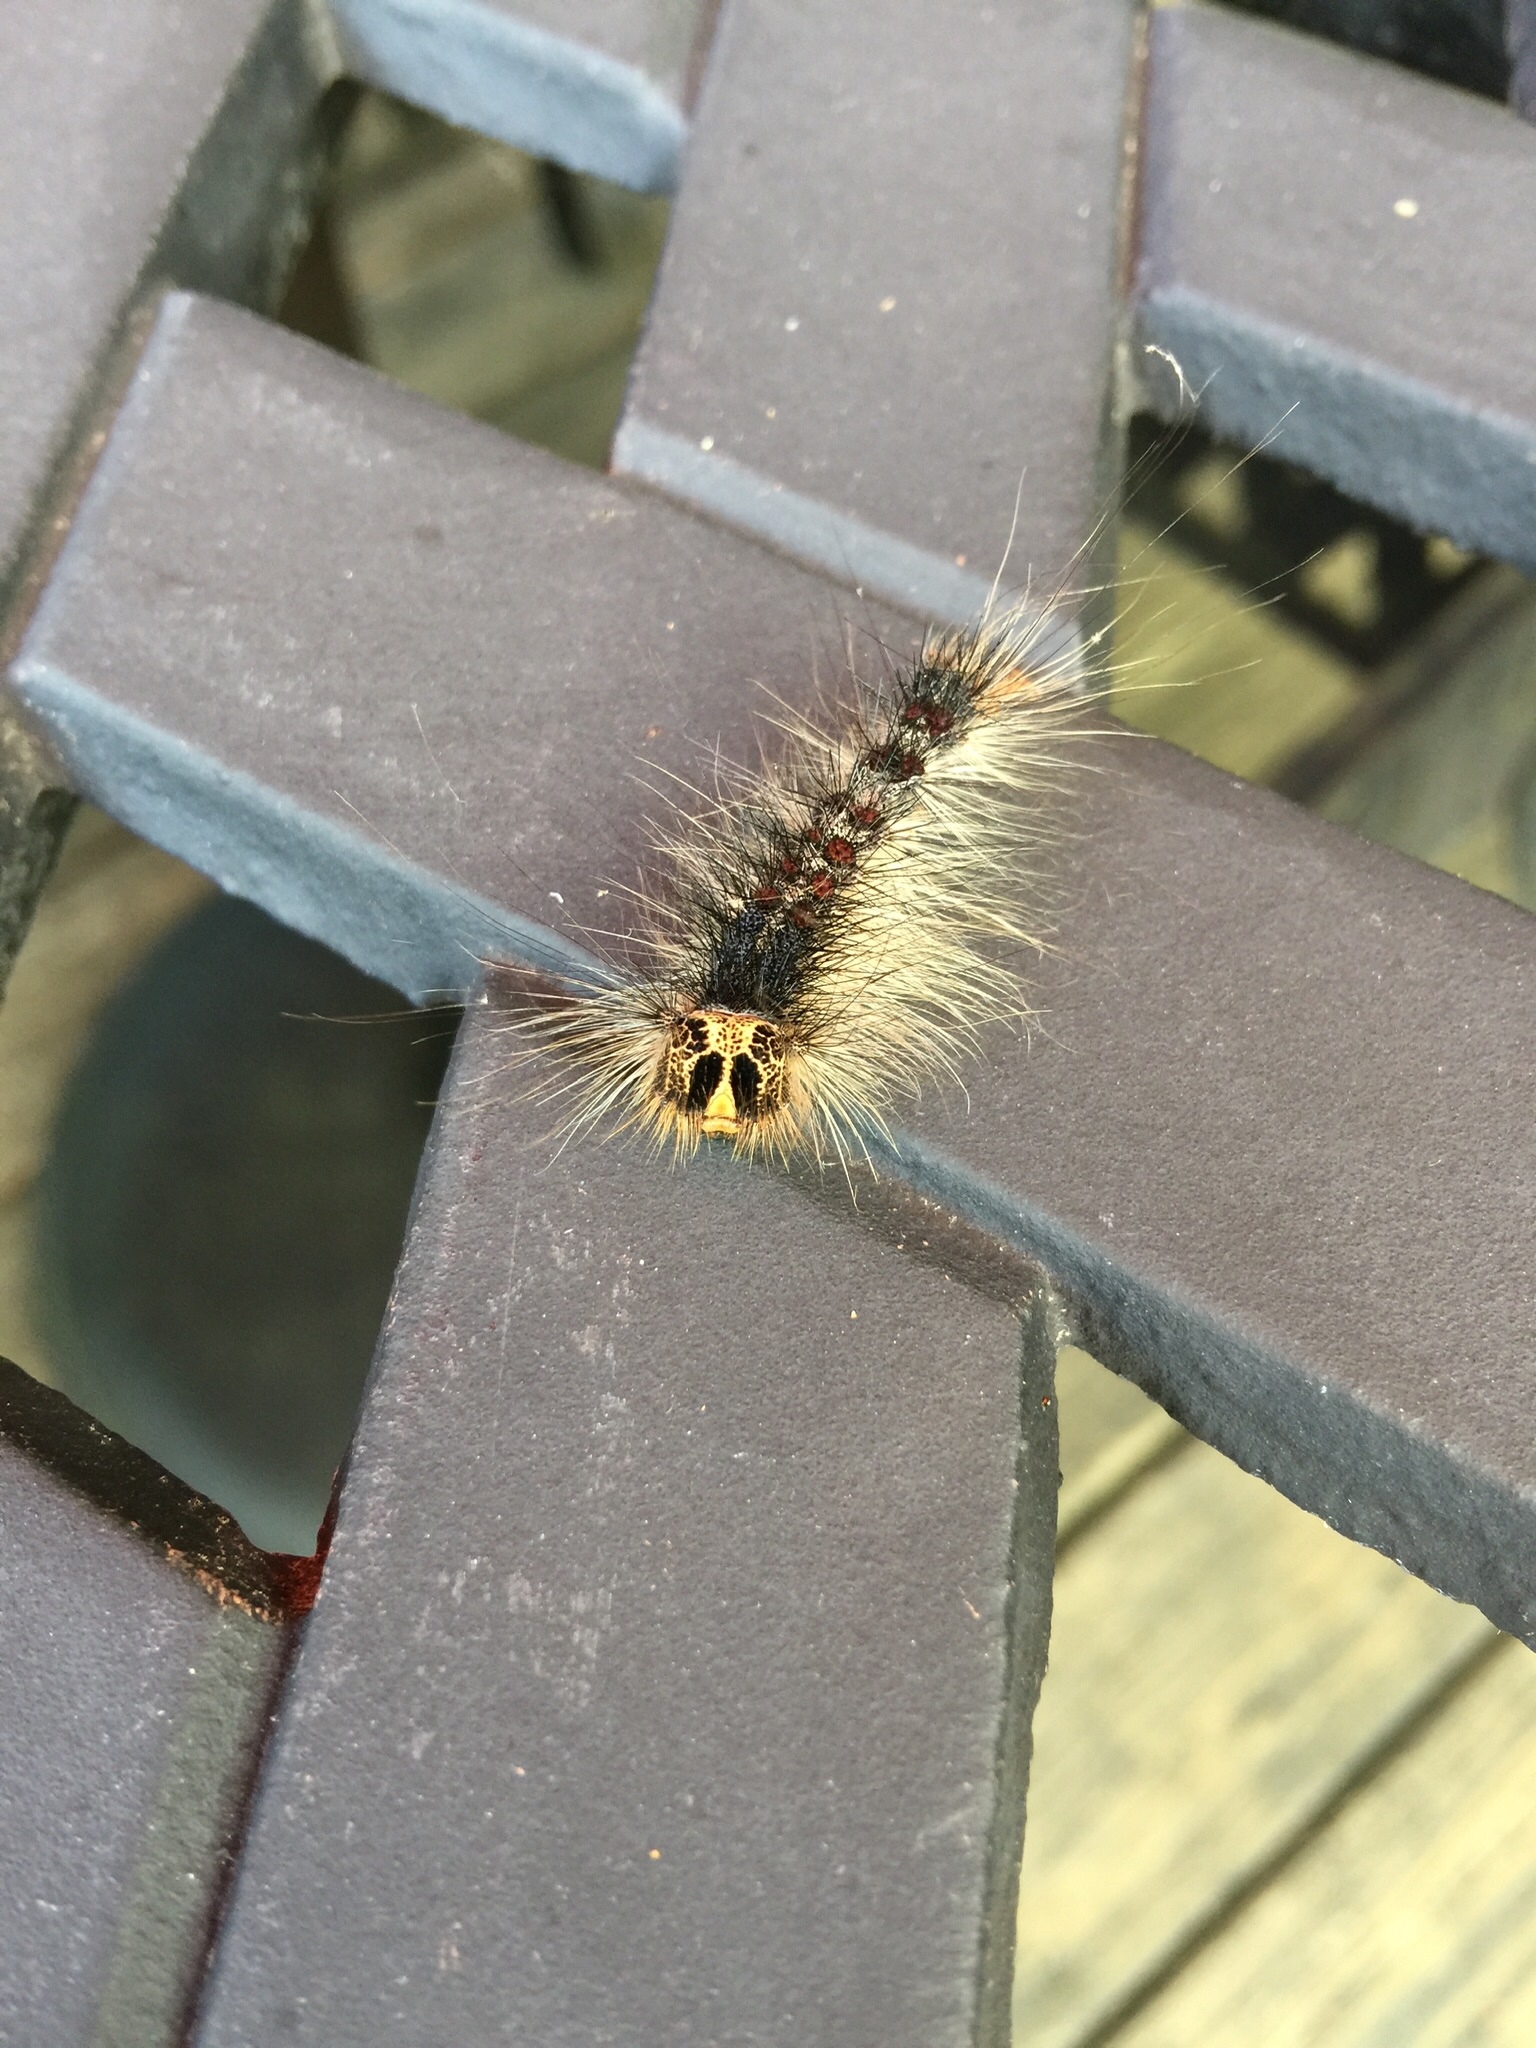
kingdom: Animalia
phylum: Arthropoda
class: Insecta
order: Lepidoptera
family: Erebidae
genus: Lymantria
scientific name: Lymantria dispar
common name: Gypsy moth
